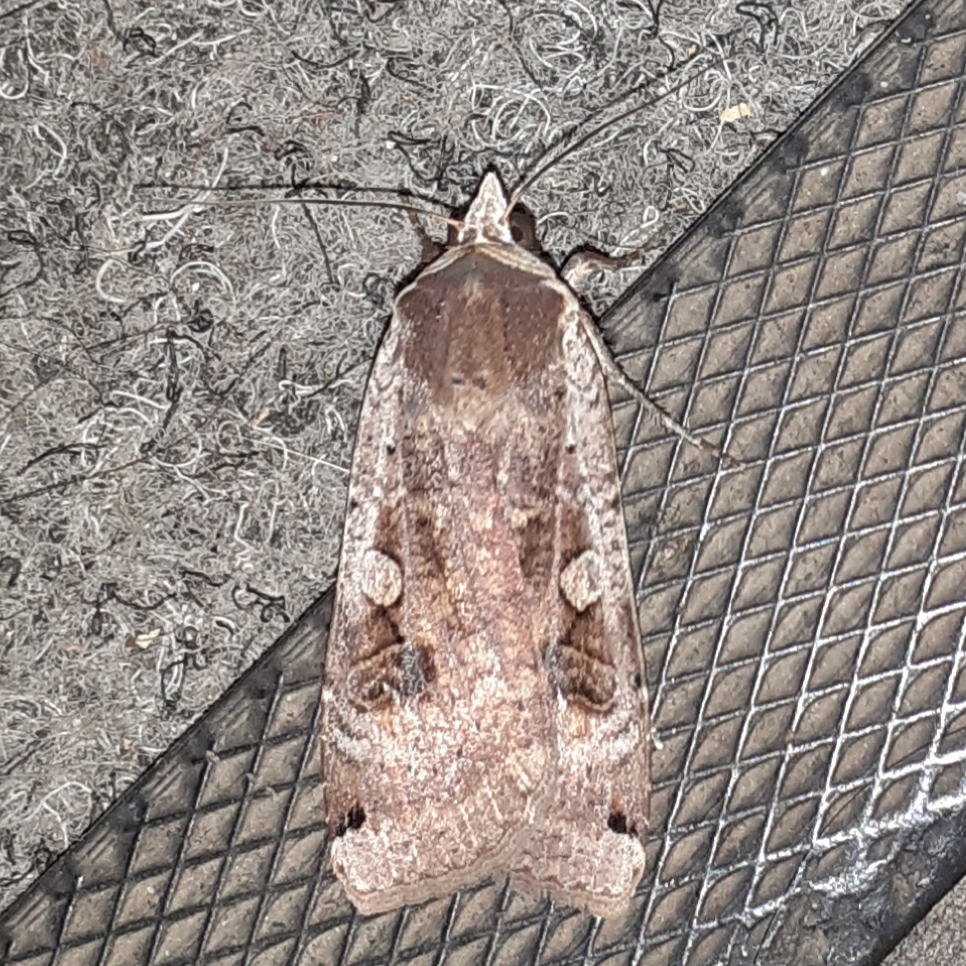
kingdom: Animalia
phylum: Arthropoda
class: Insecta
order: Lepidoptera
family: Noctuidae
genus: Noctua
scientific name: Noctua pronuba
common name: Large yellow underwing
